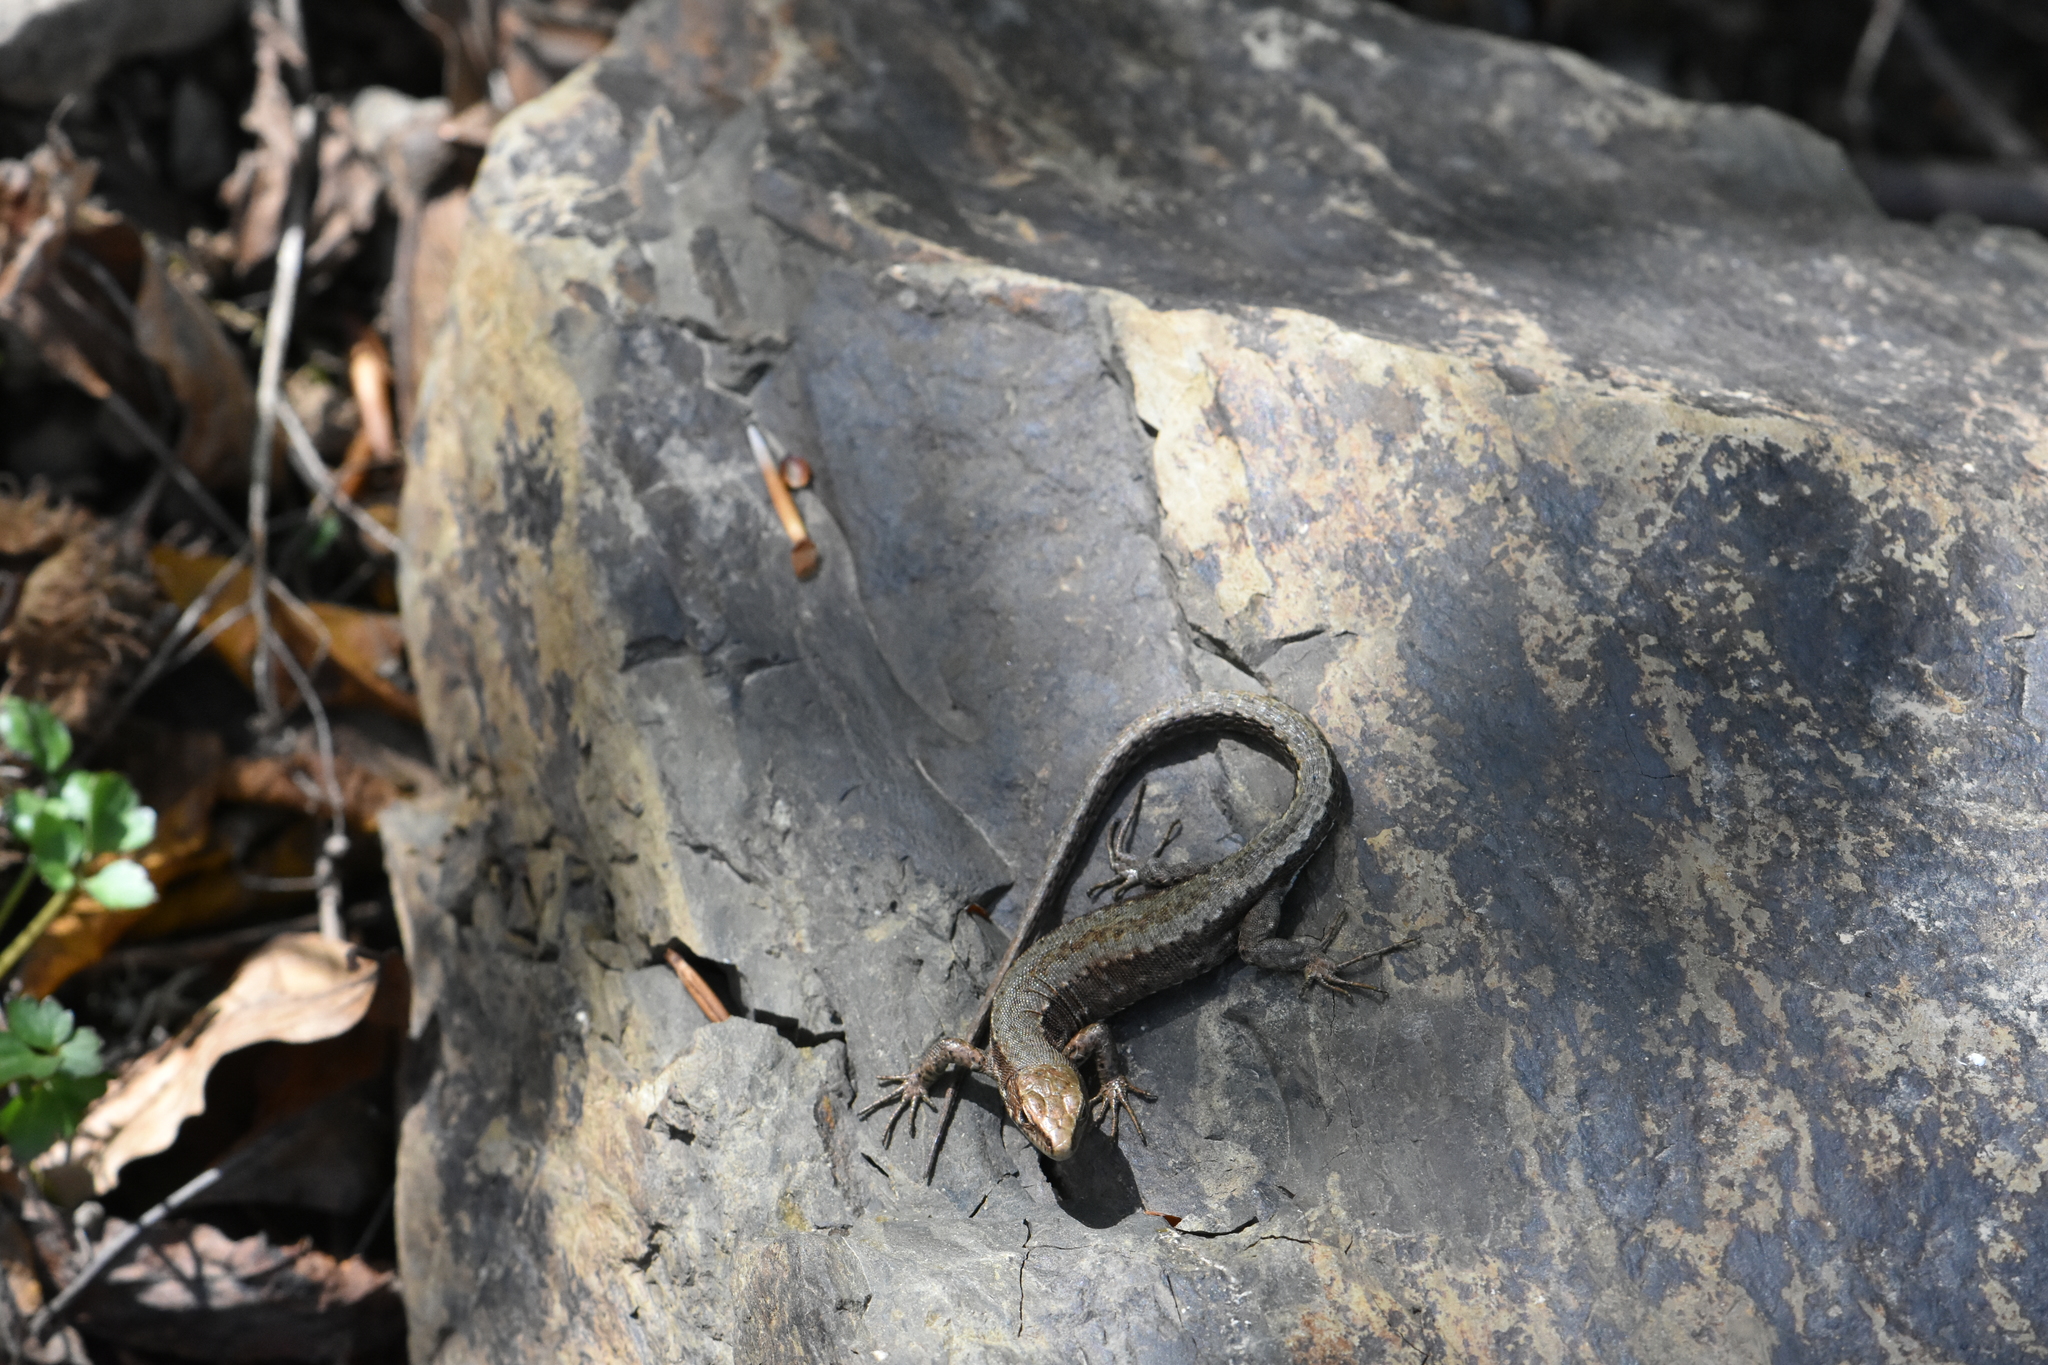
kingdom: Animalia
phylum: Chordata
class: Squamata
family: Lacertidae
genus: Darevskia
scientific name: Darevskia brauneri
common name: Brauner's rock lizard
